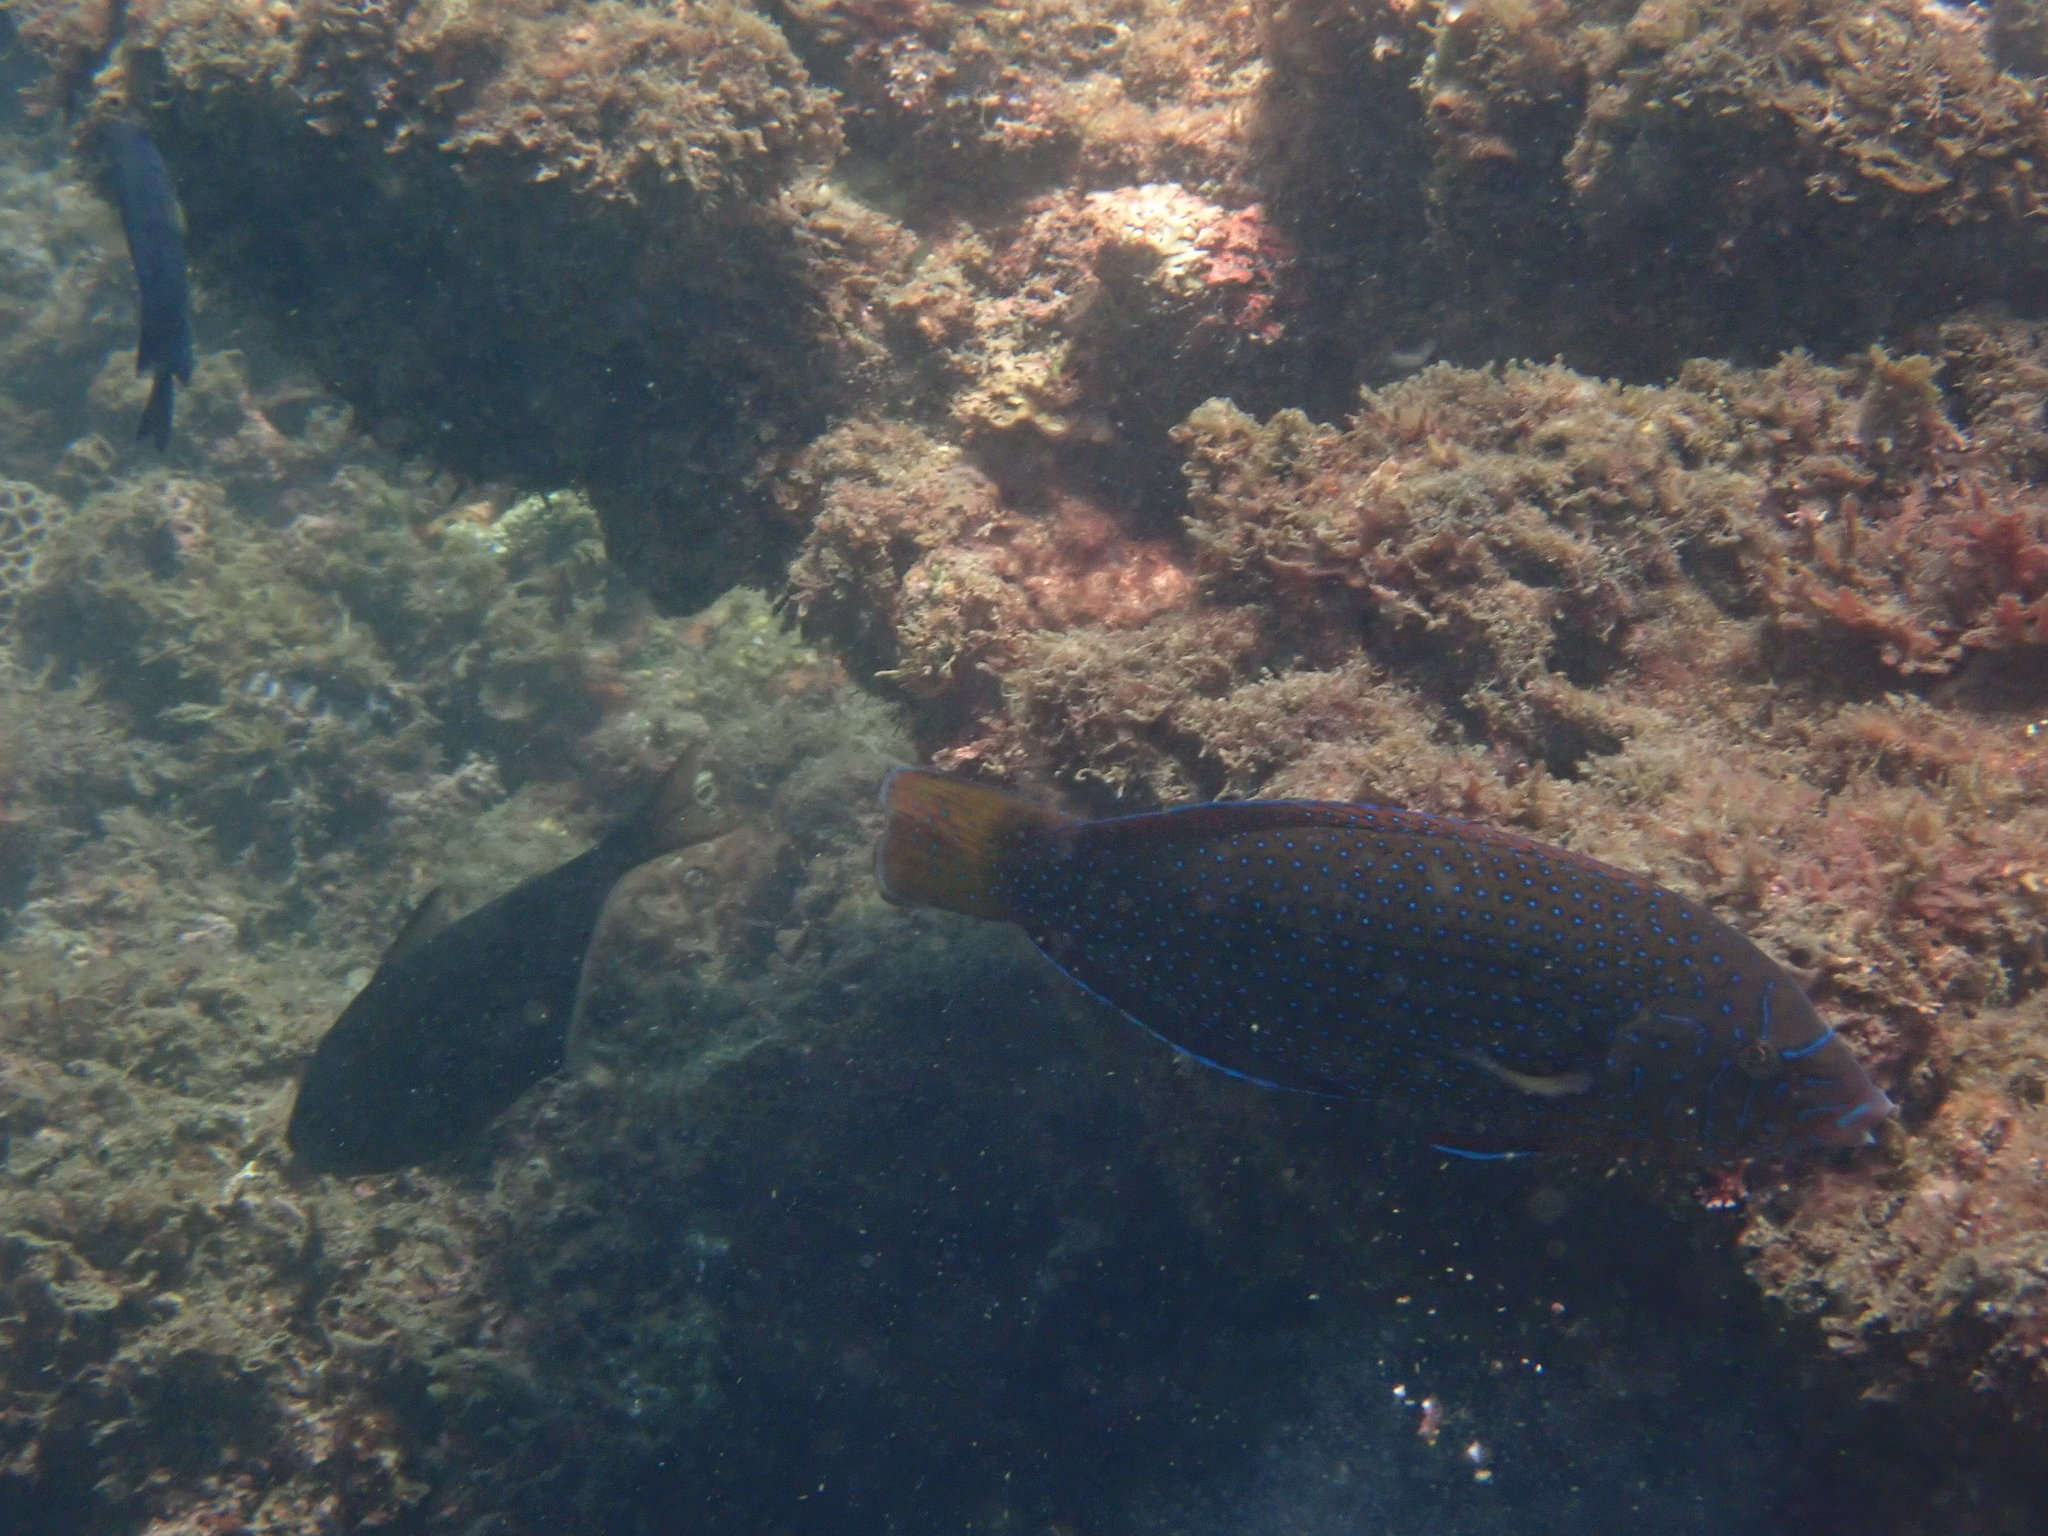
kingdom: Animalia
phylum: Chordata
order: Perciformes
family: Labridae
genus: Anampses
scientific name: Anampses caeruleopunctatus
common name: Bluespotted wrasse
